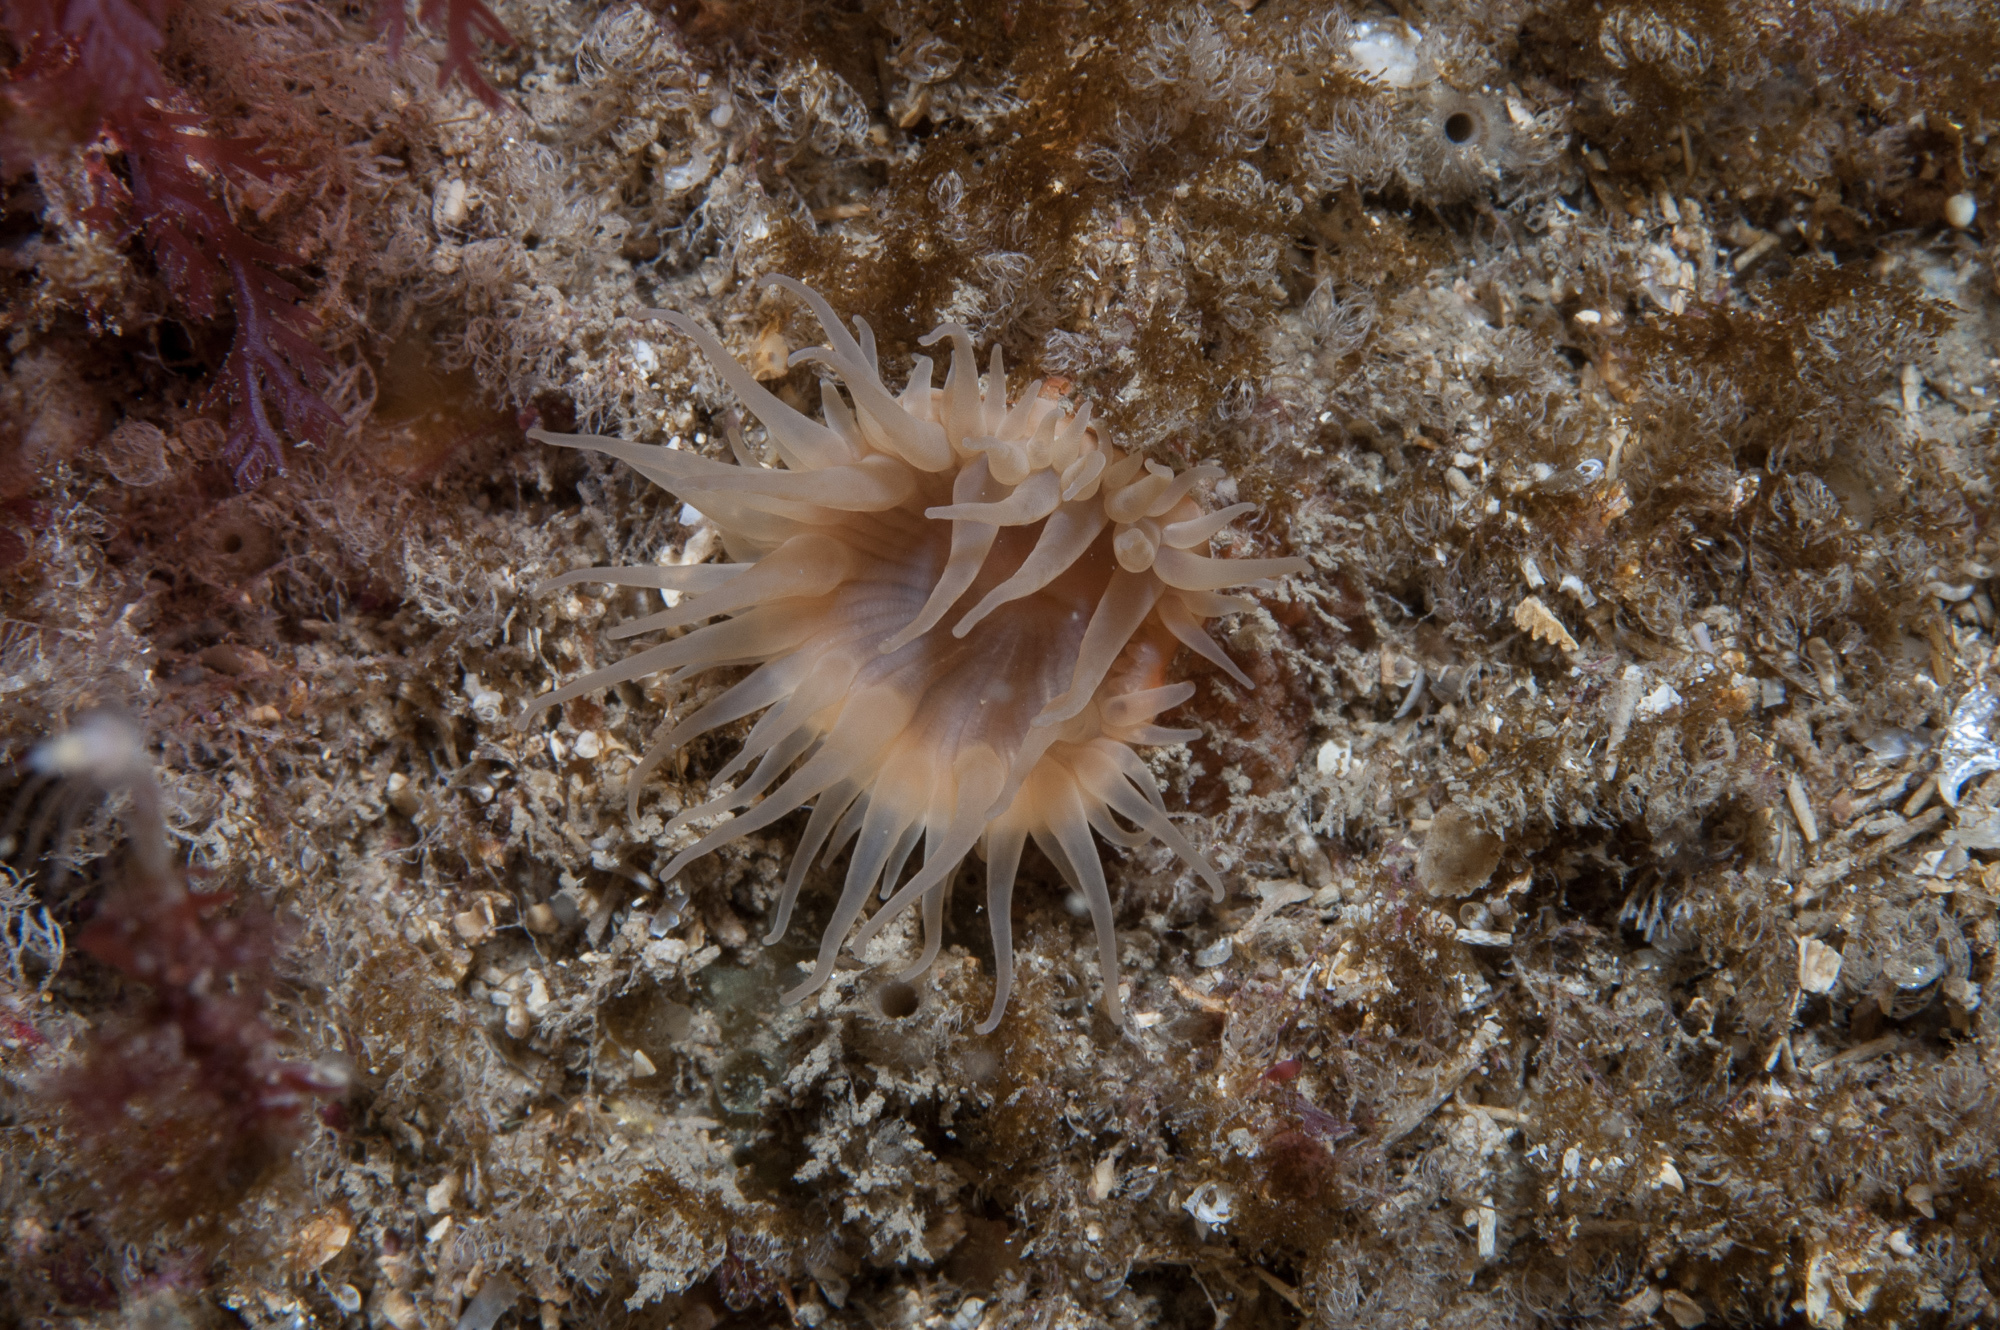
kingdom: Animalia
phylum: Cnidaria
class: Anthozoa
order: Actiniaria
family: Hormathiidae
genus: Hormathia
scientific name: Hormathia coronata
